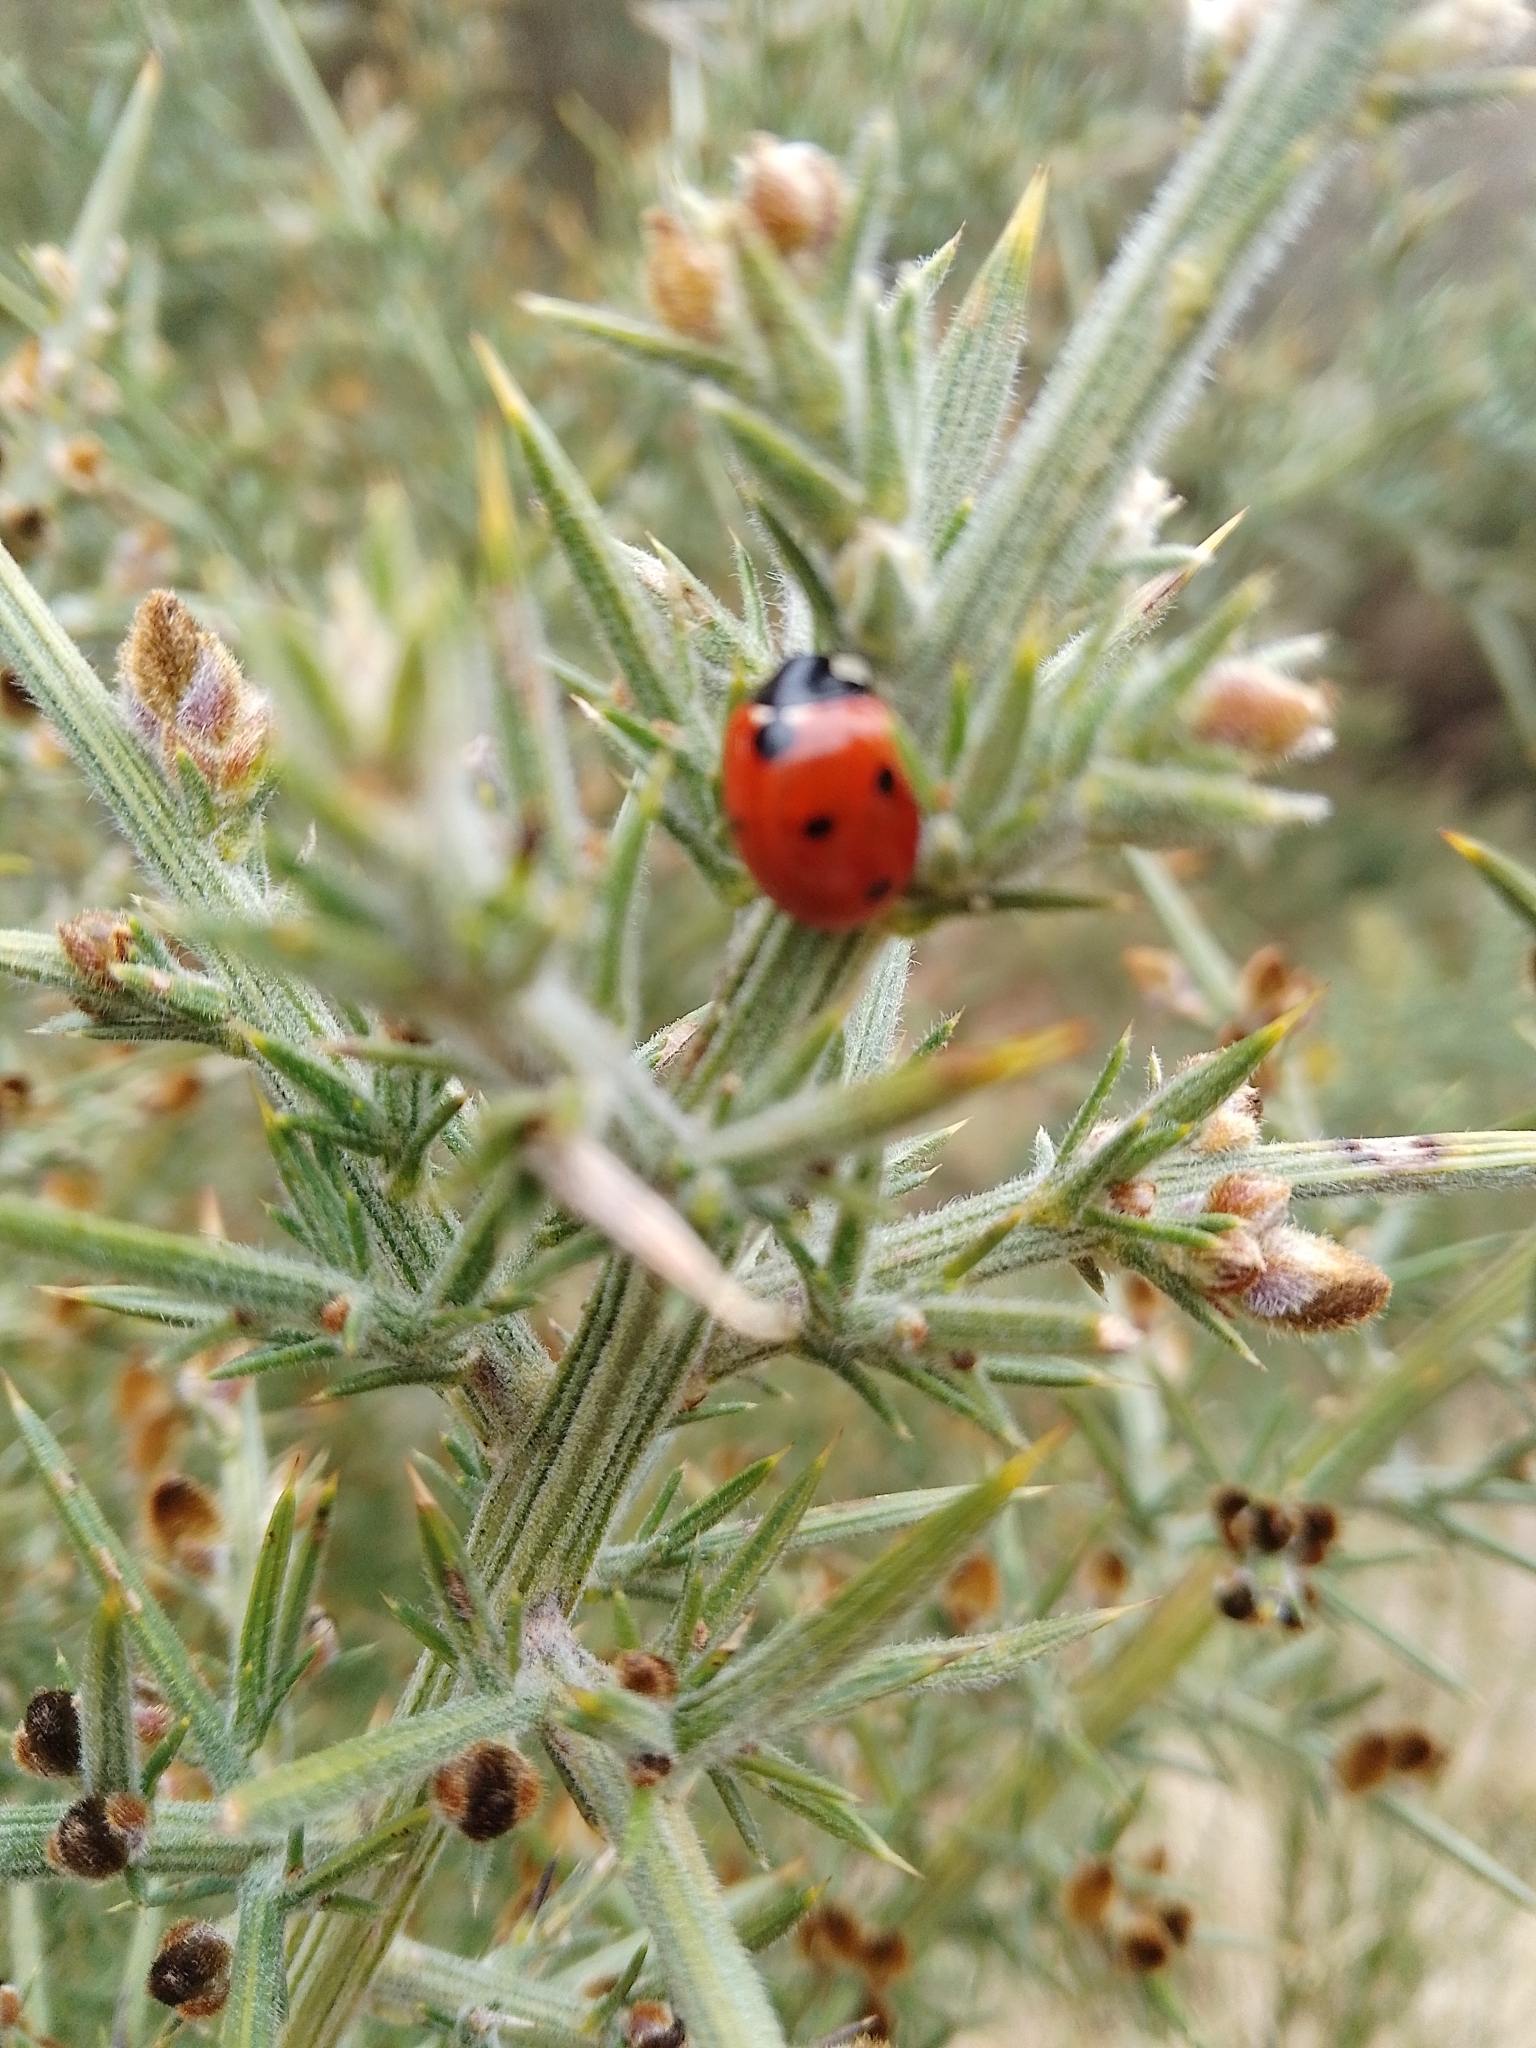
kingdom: Animalia
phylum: Arthropoda
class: Insecta
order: Coleoptera
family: Coccinellidae
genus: Coccinella
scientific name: Coccinella septempunctata
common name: Sevenspotted lady beetle
